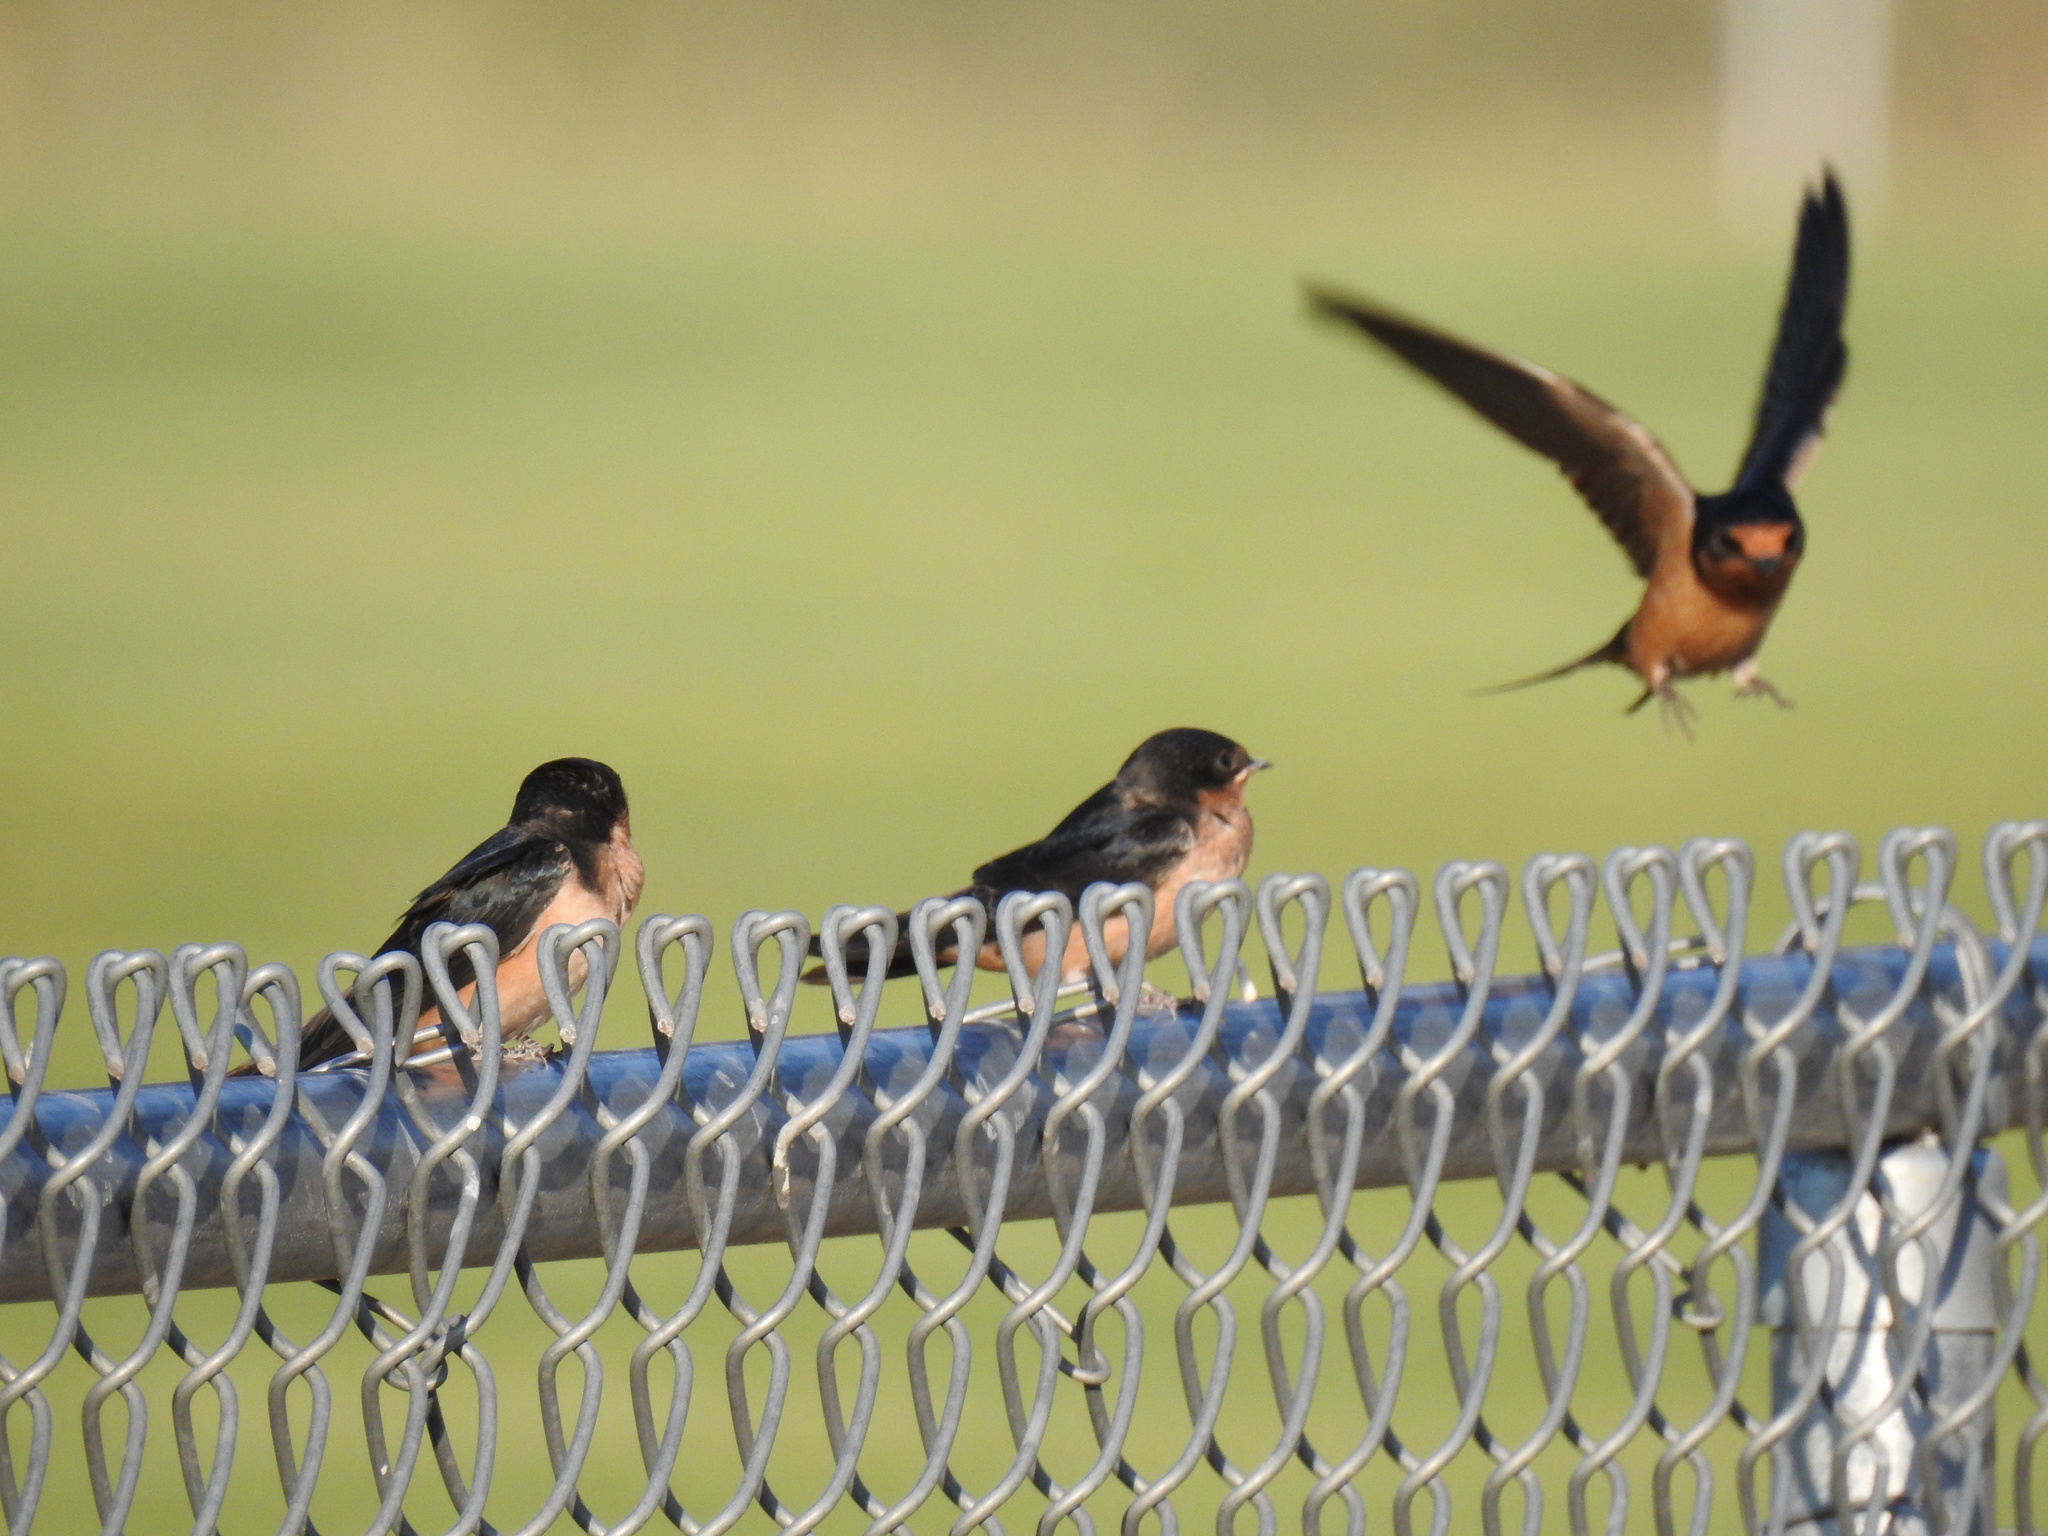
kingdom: Animalia
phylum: Chordata
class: Aves
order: Passeriformes
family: Hirundinidae
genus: Hirundo
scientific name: Hirundo rustica
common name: Barn swallow
